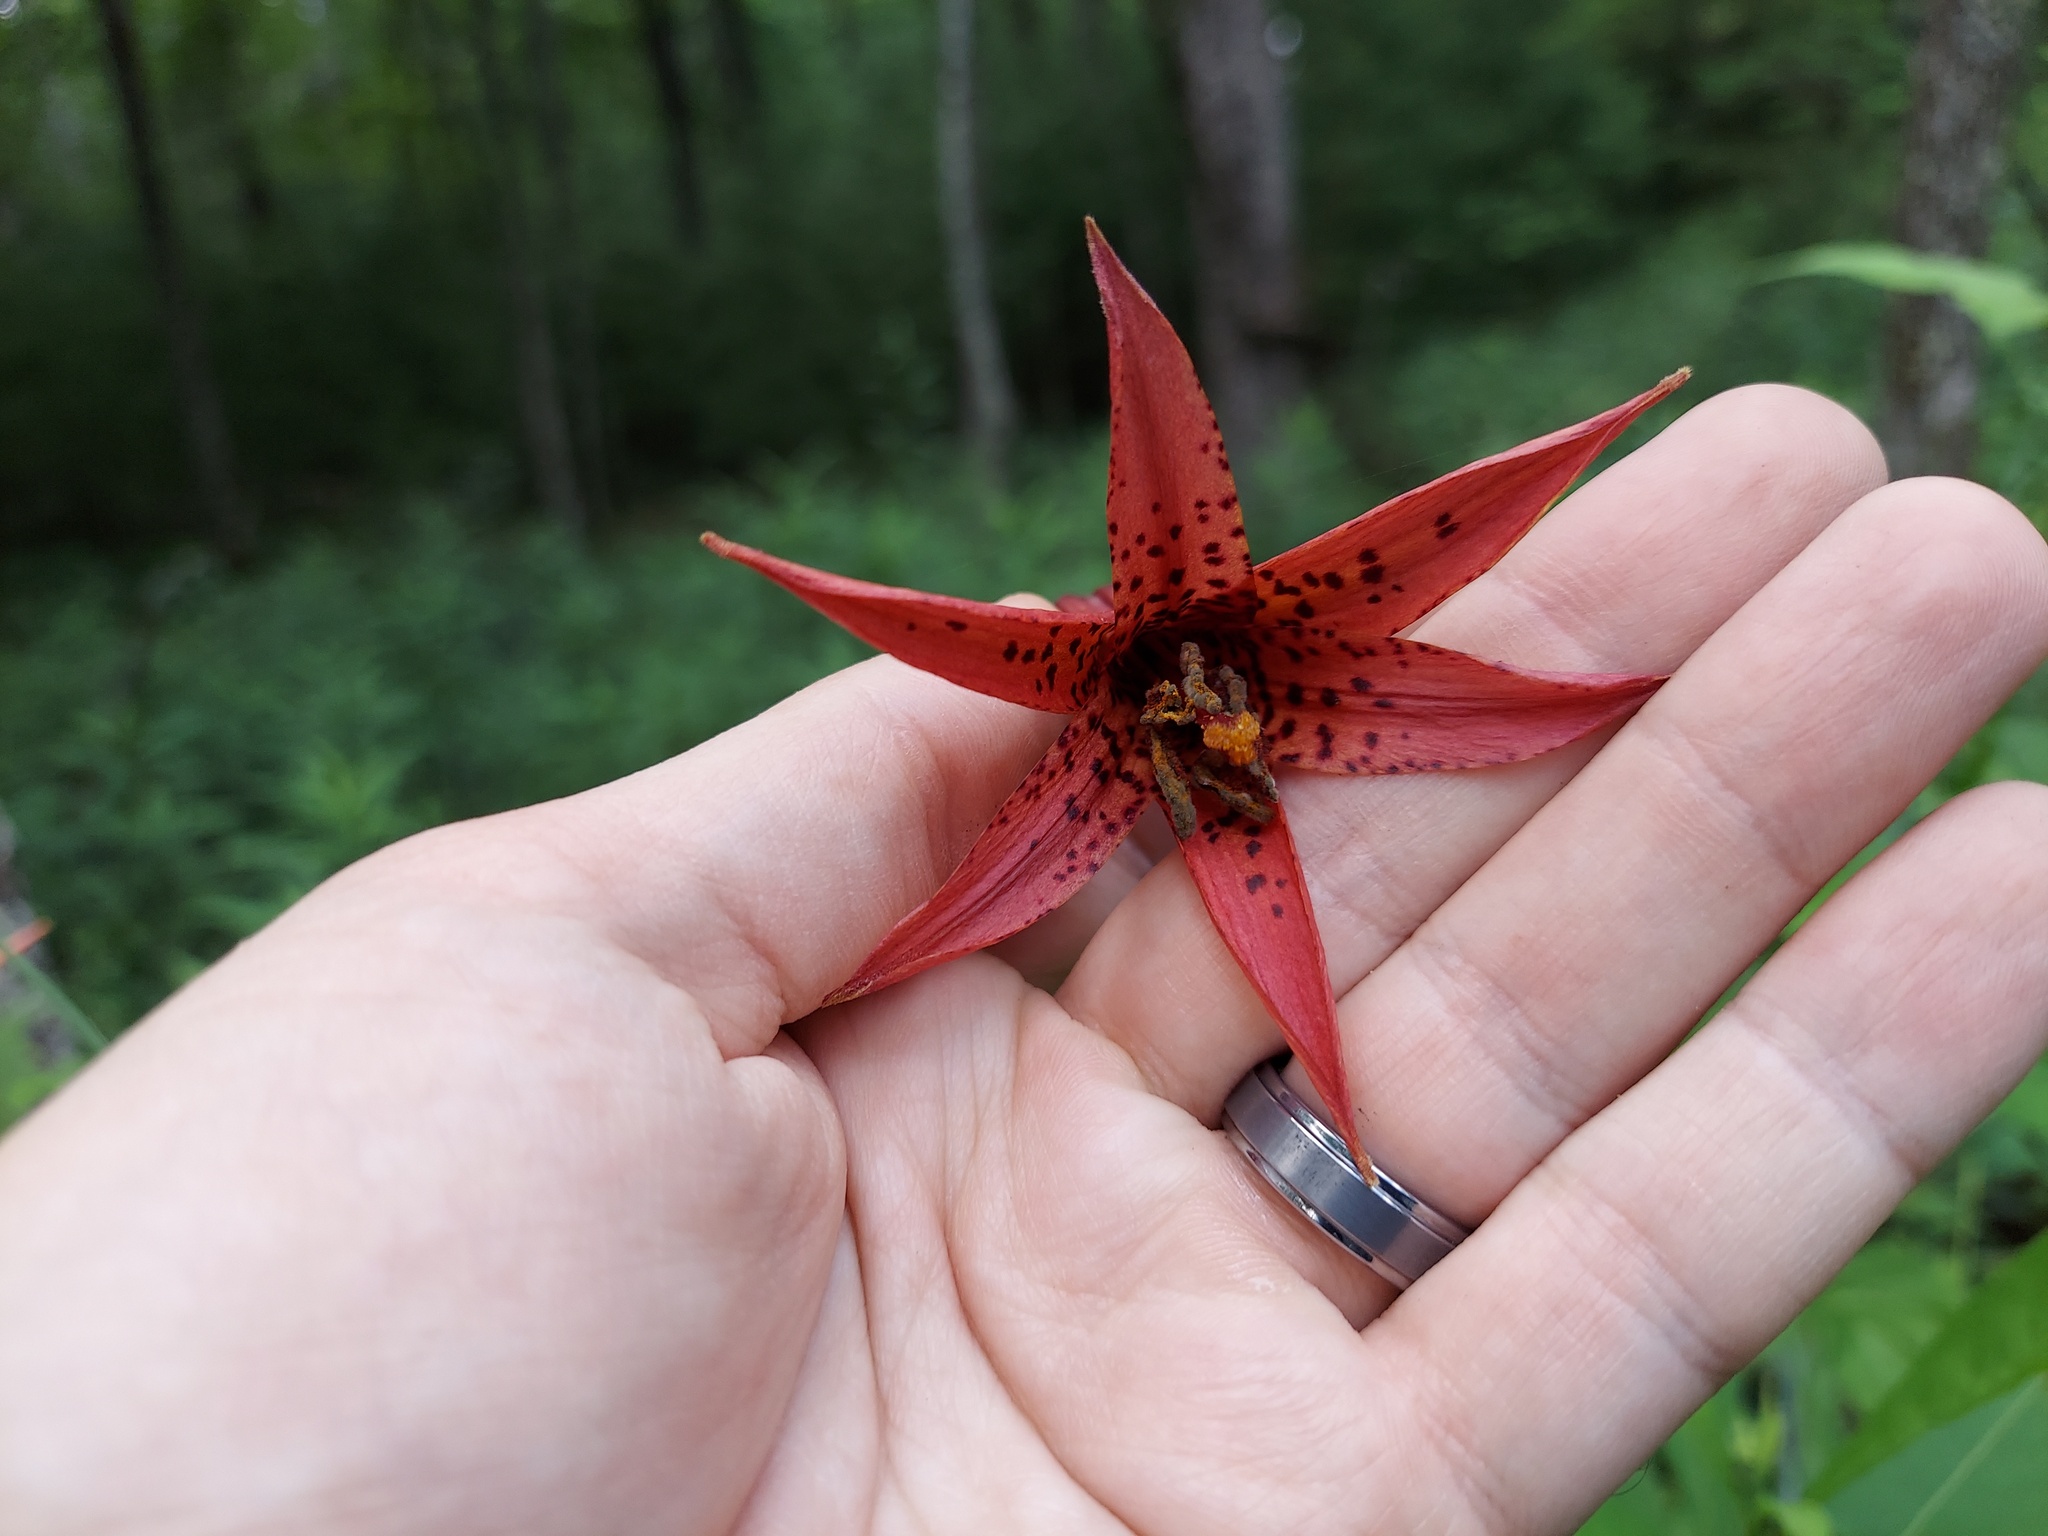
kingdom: Plantae
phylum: Tracheophyta
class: Liliopsida
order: Liliales
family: Liliaceae
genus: Lilium
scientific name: Lilium canadense
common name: Canada lily
